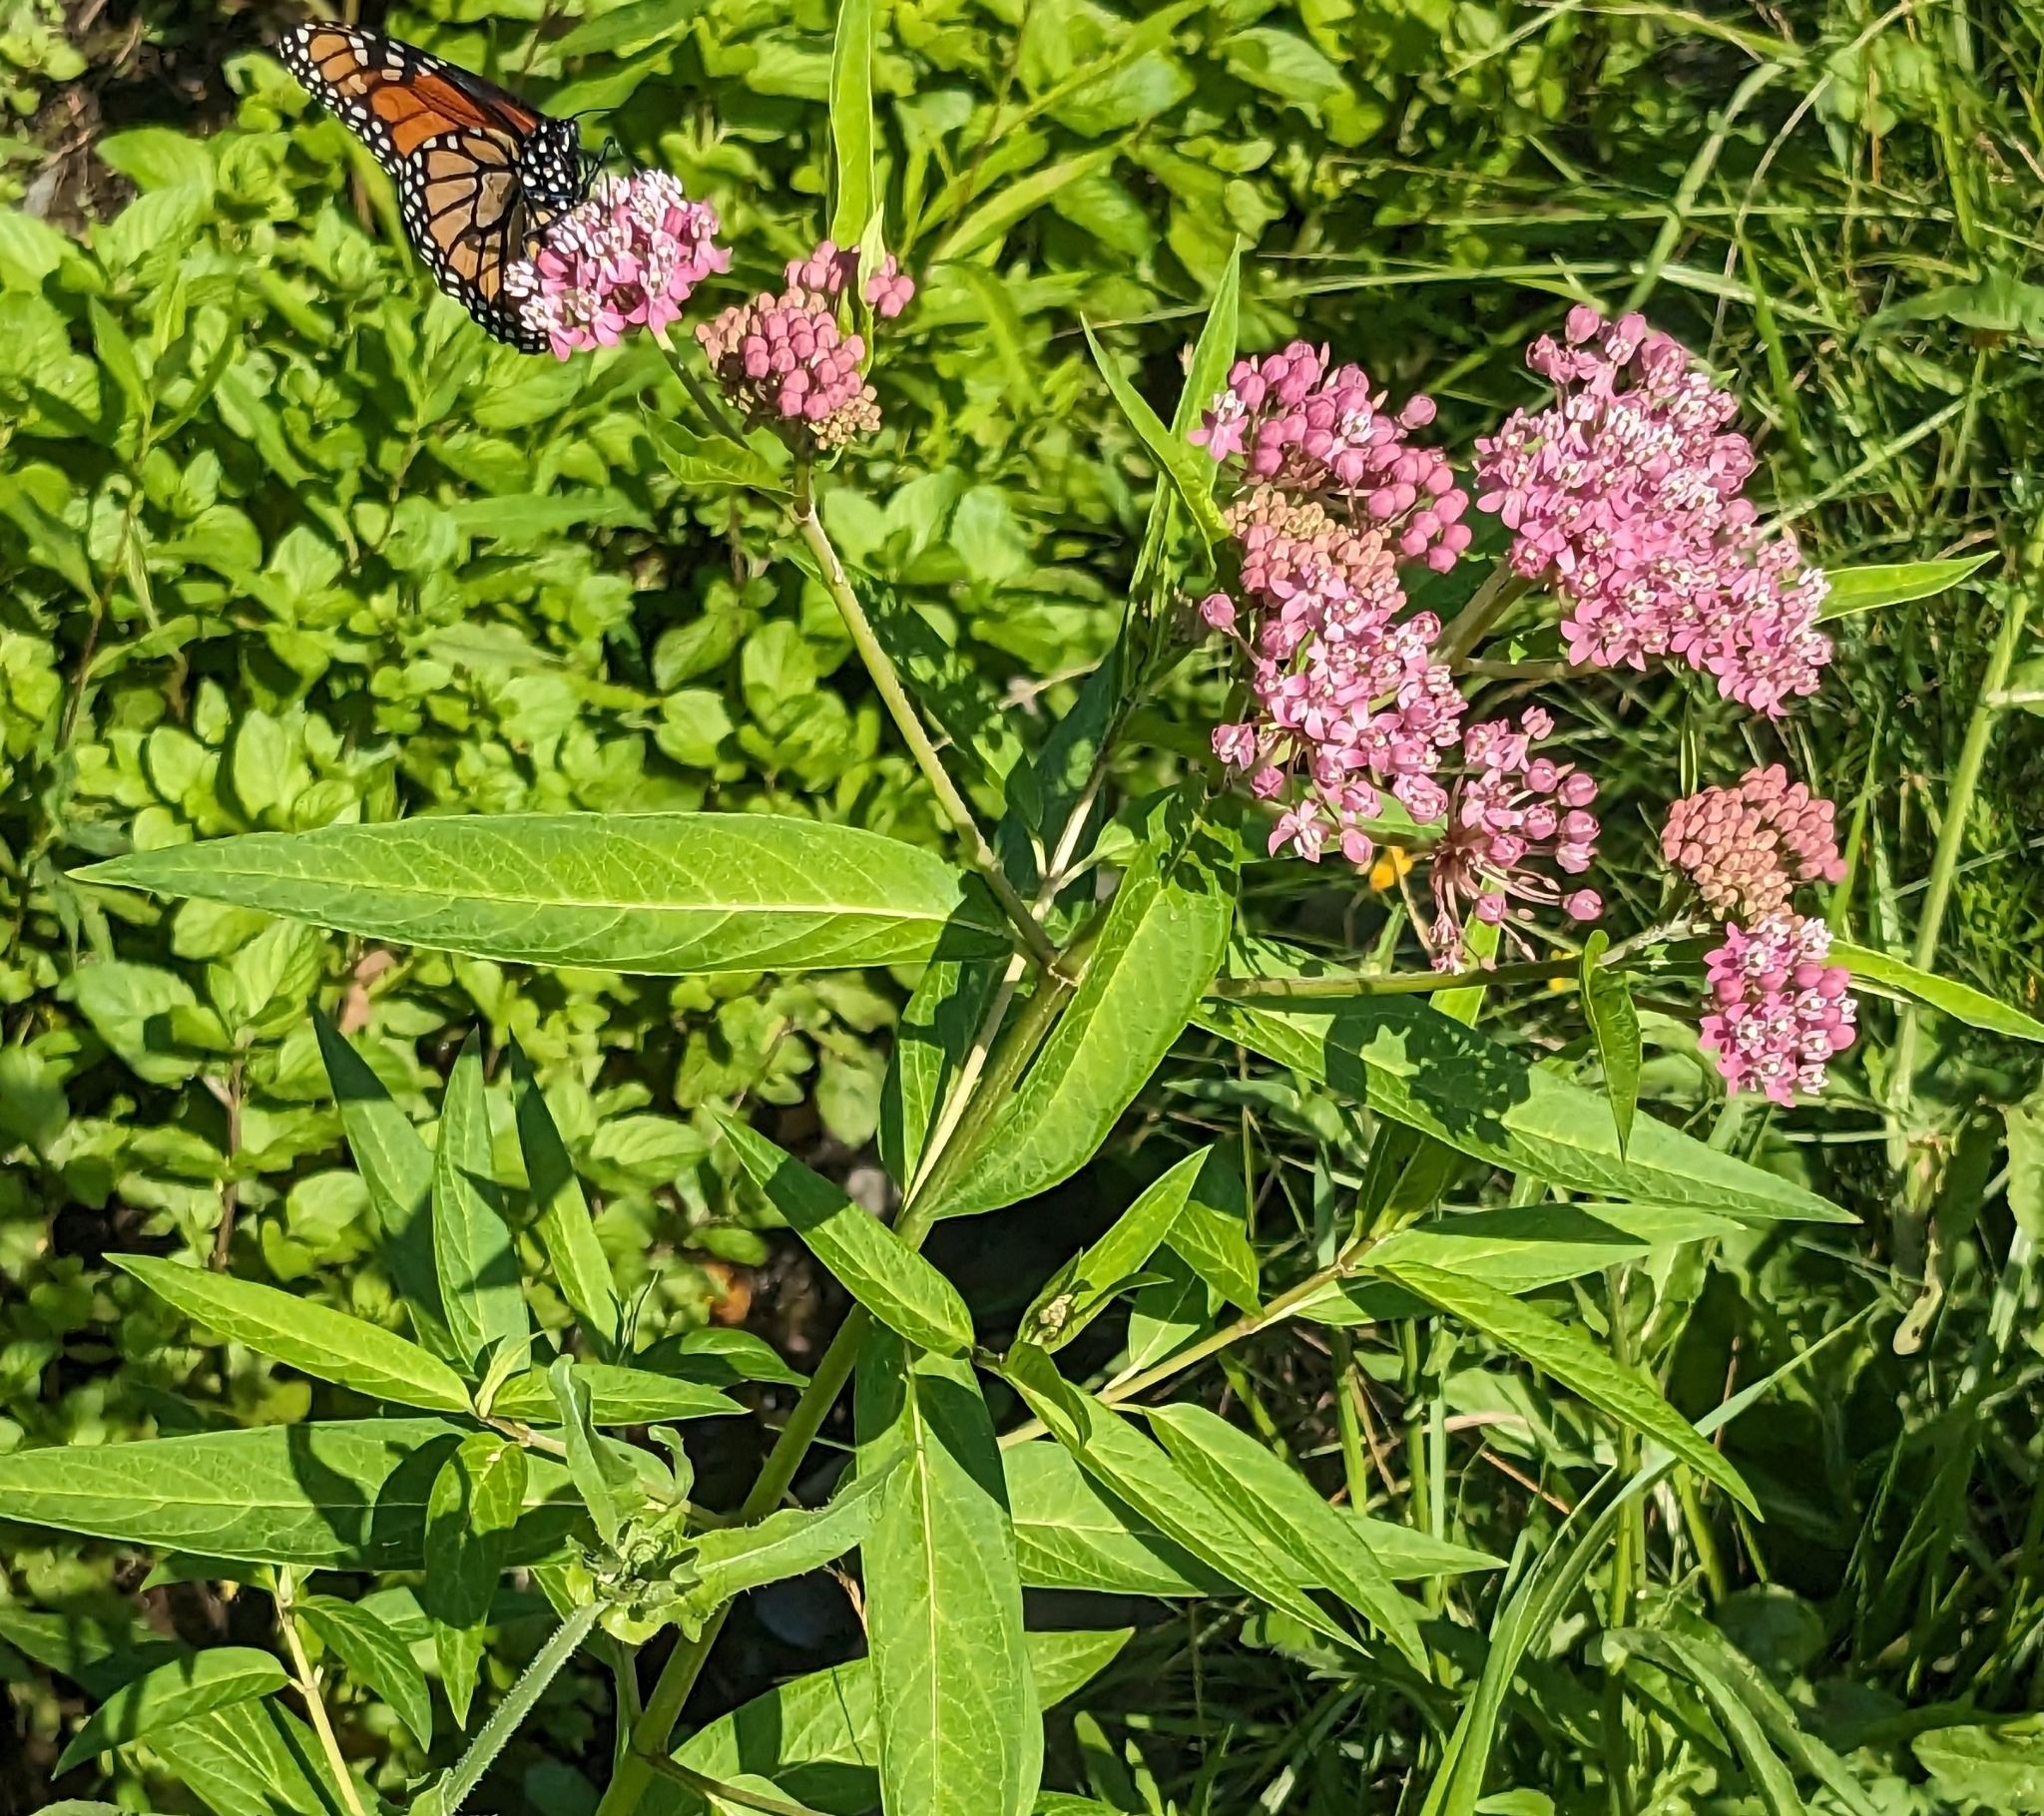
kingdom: Plantae
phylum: Tracheophyta
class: Magnoliopsida
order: Gentianales
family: Apocynaceae
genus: Asclepias
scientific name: Asclepias incarnata
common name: Swamp milkweed
